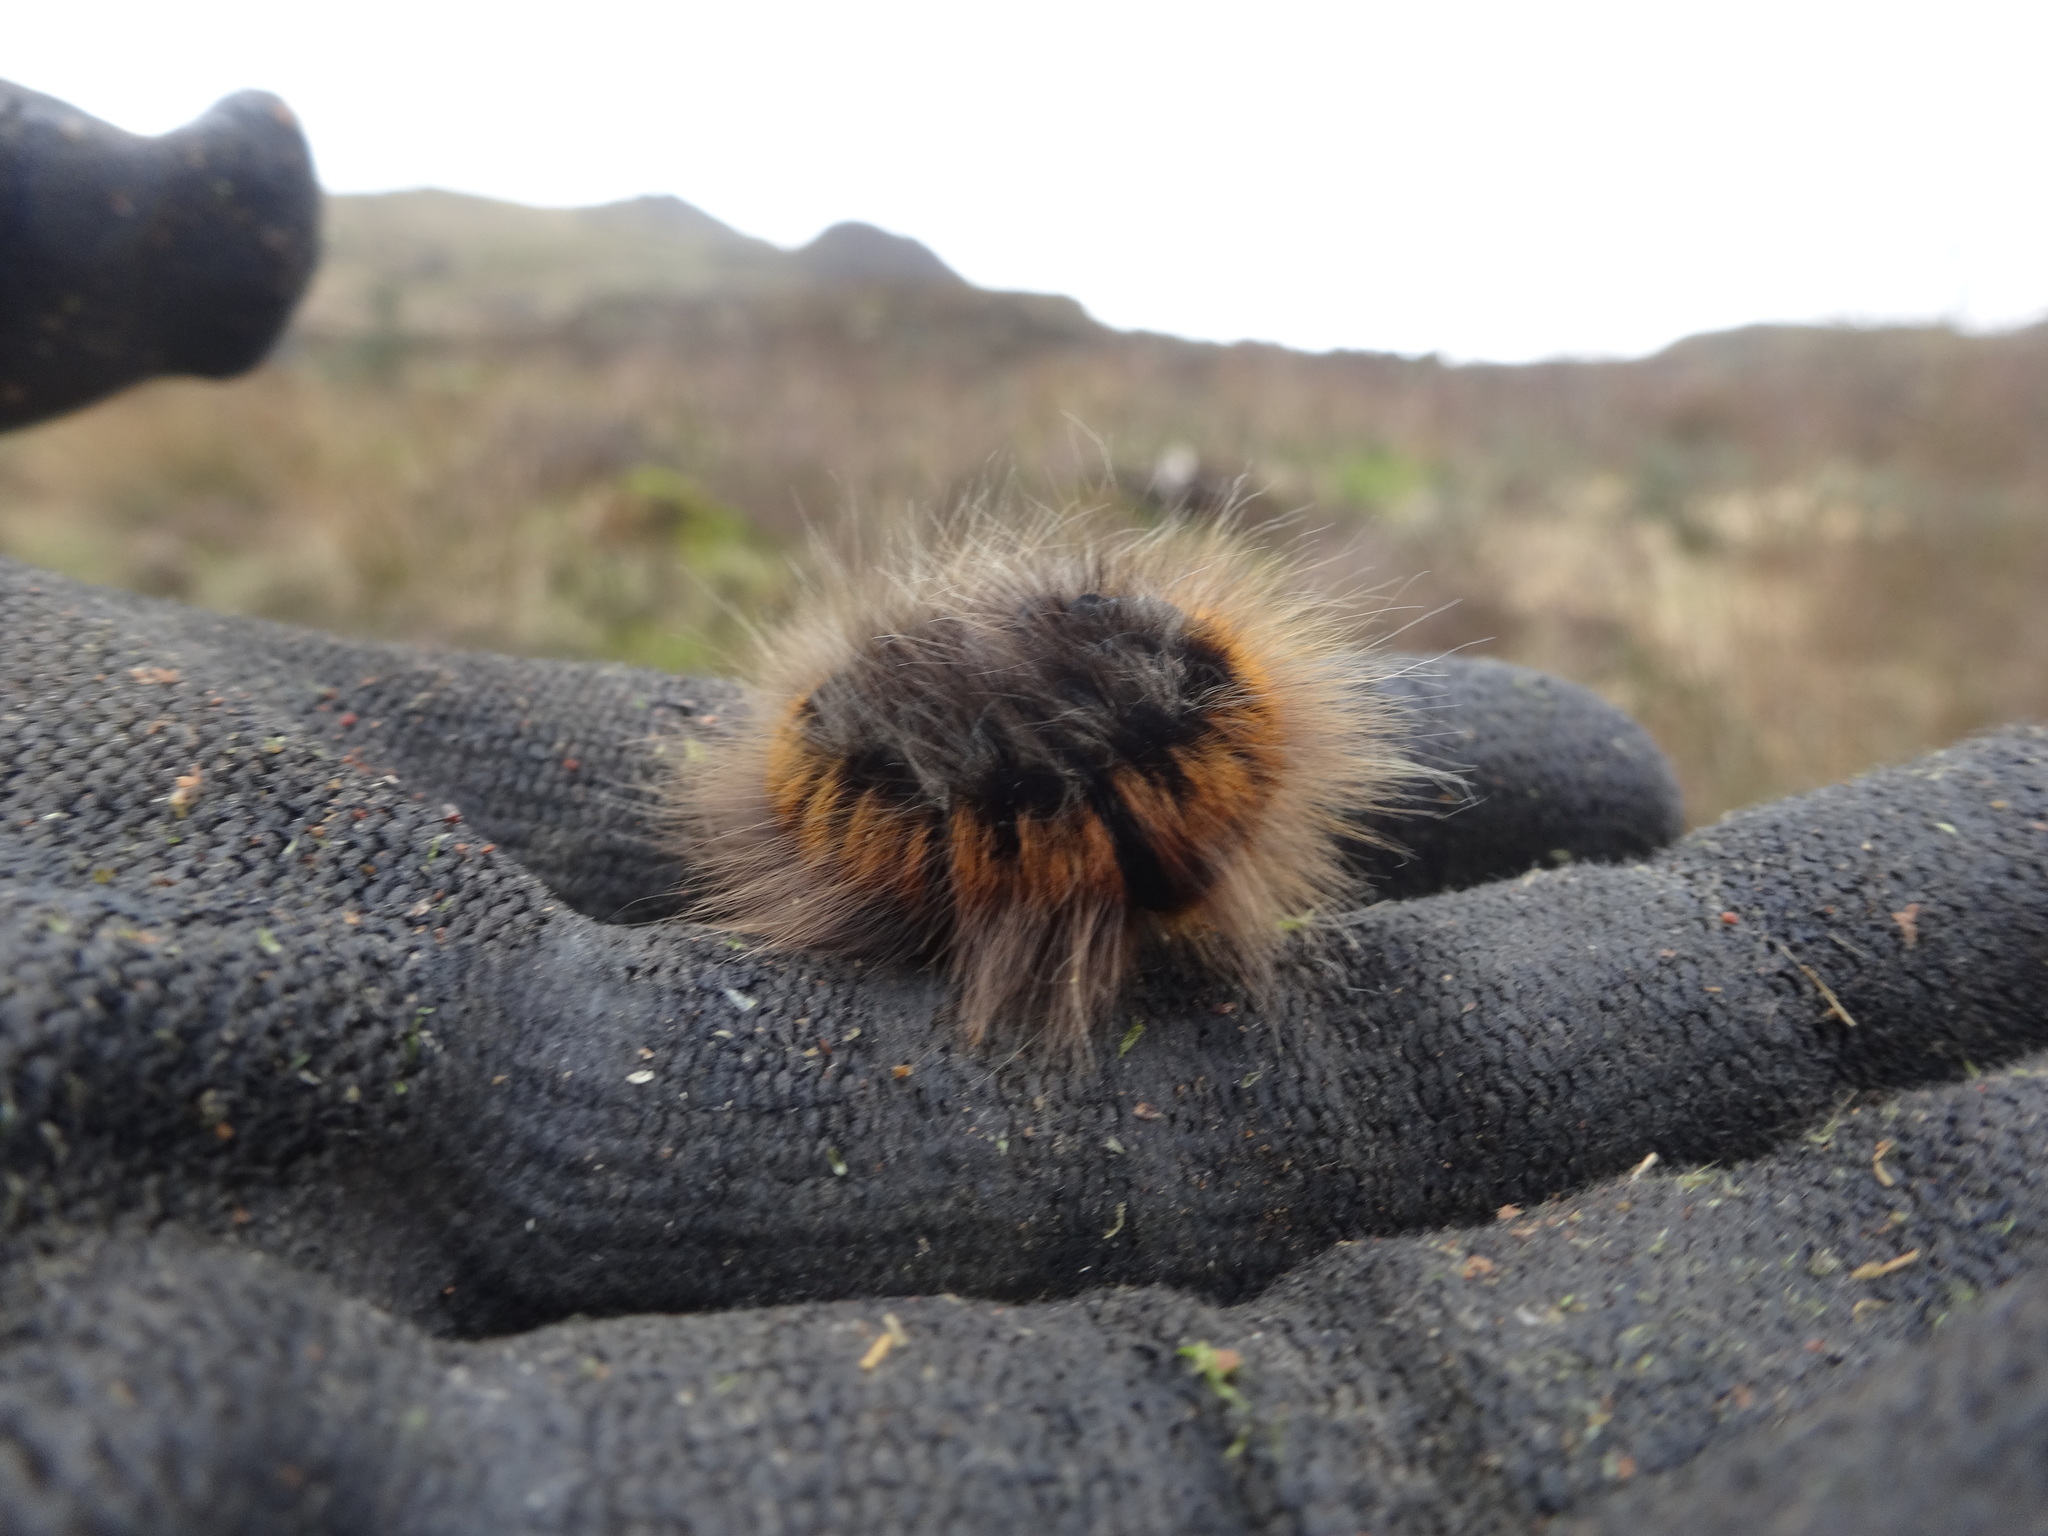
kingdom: Animalia
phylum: Arthropoda
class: Insecta
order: Lepidoptera
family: Lasiocampidae
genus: Macrothylacia
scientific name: Macrothylacia rubi
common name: Fox moth
